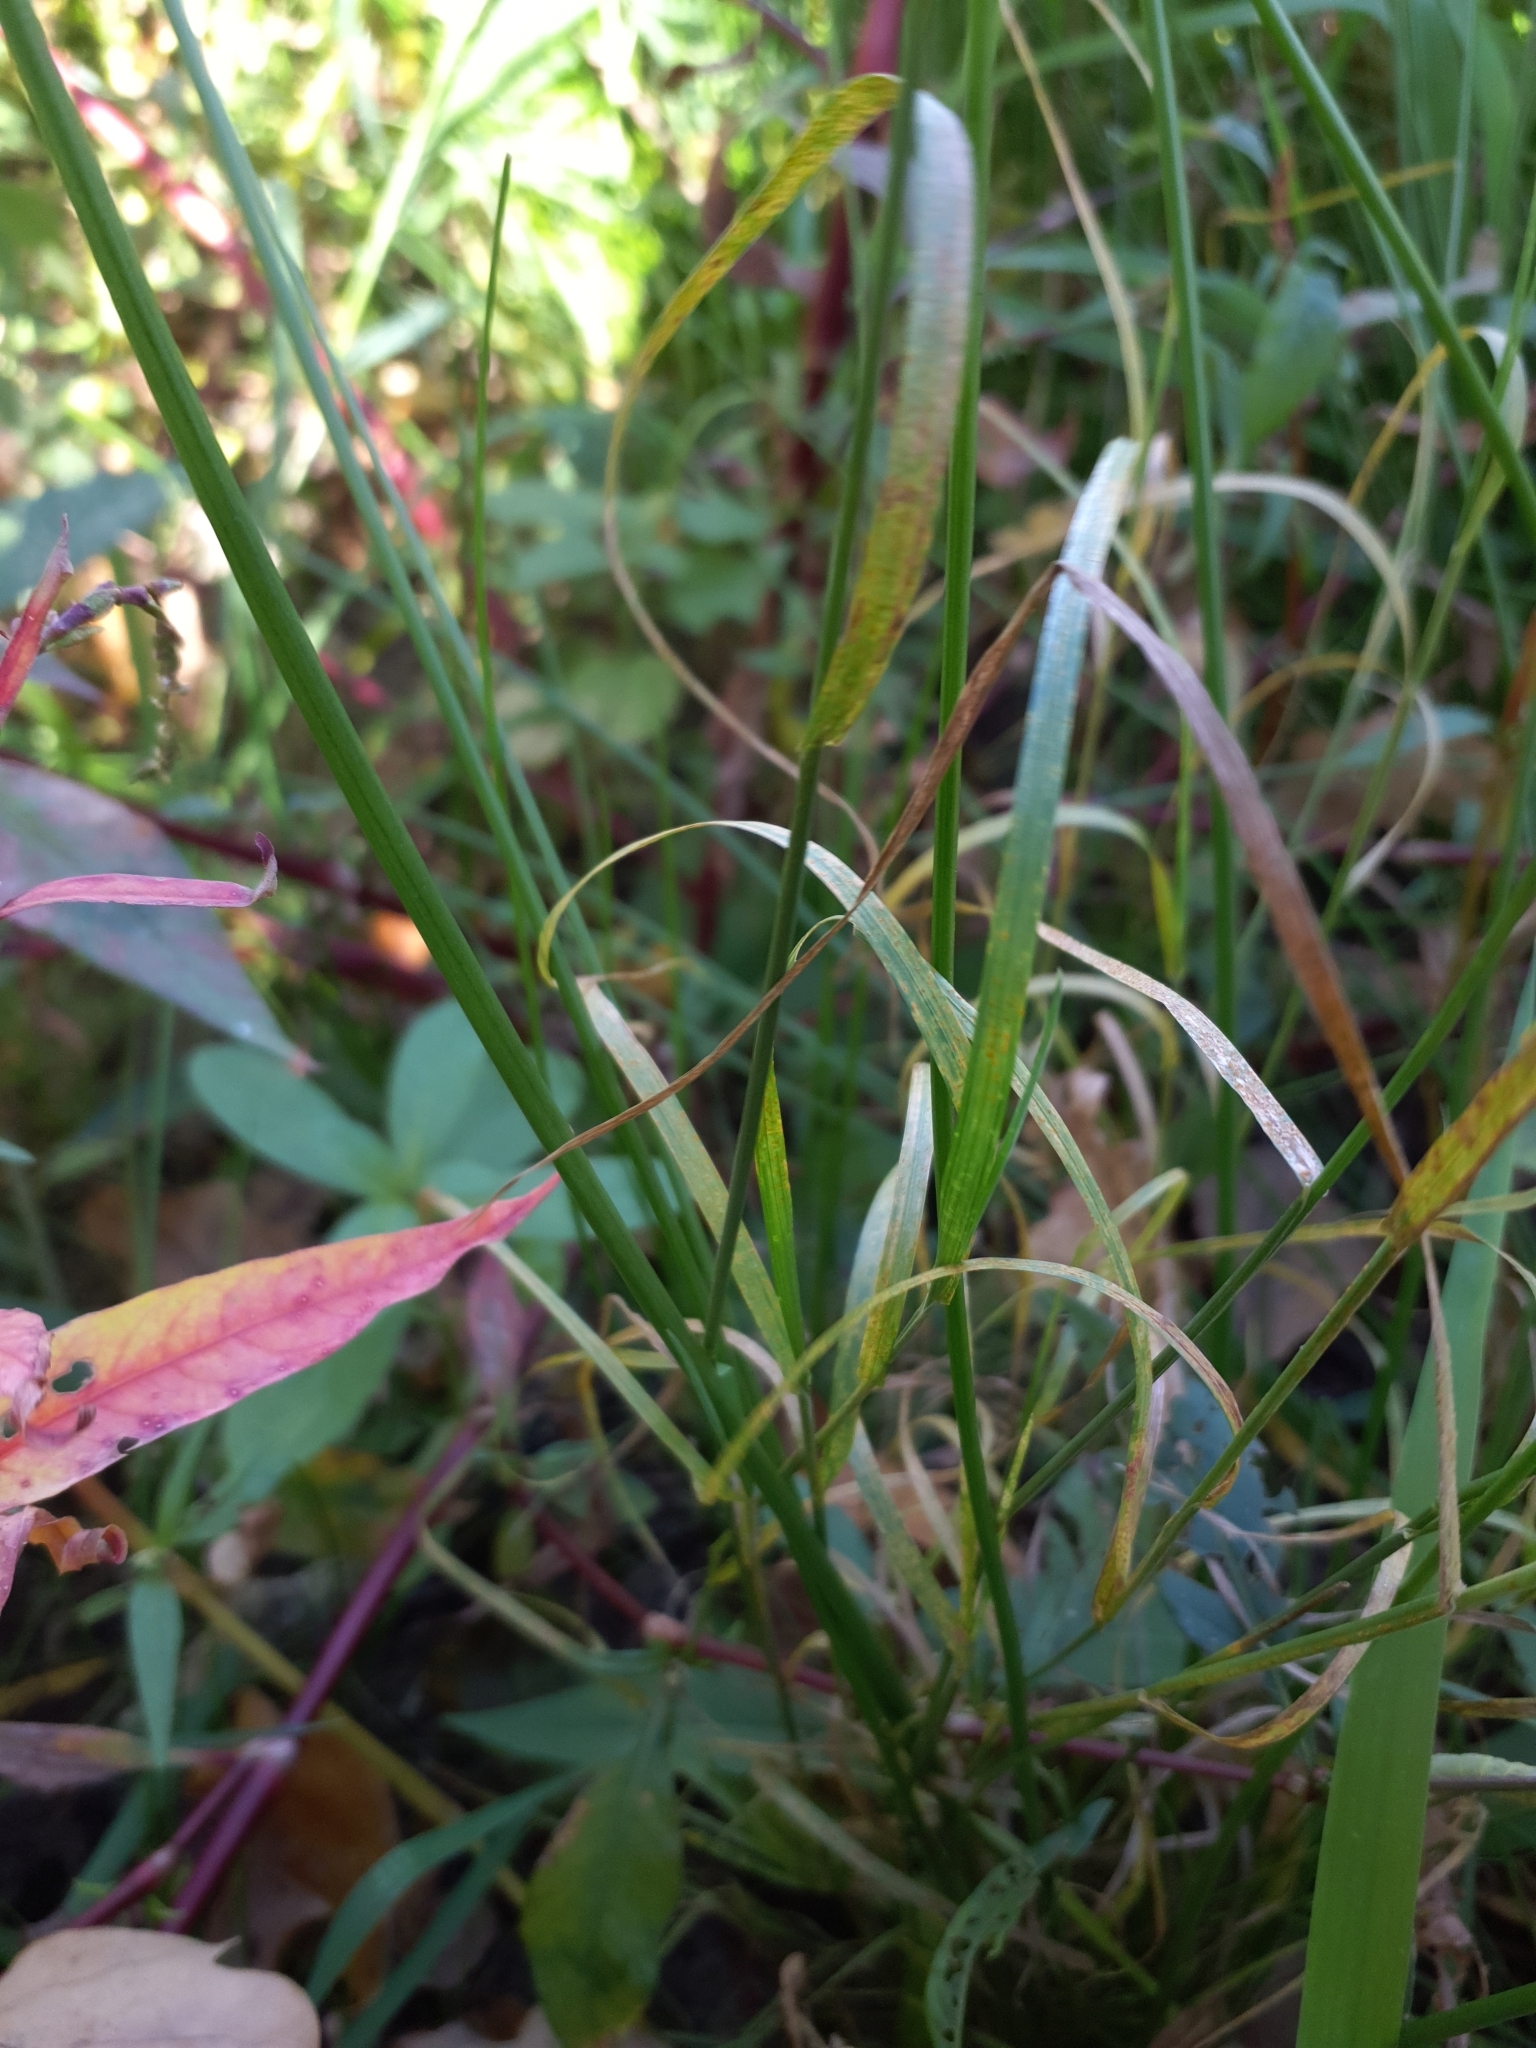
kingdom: Plantae
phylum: Tracheophyta
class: Liliopsida
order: Poales
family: Poaceae
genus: Poa
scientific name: Poa palustris
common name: Swamp meadow-grass
